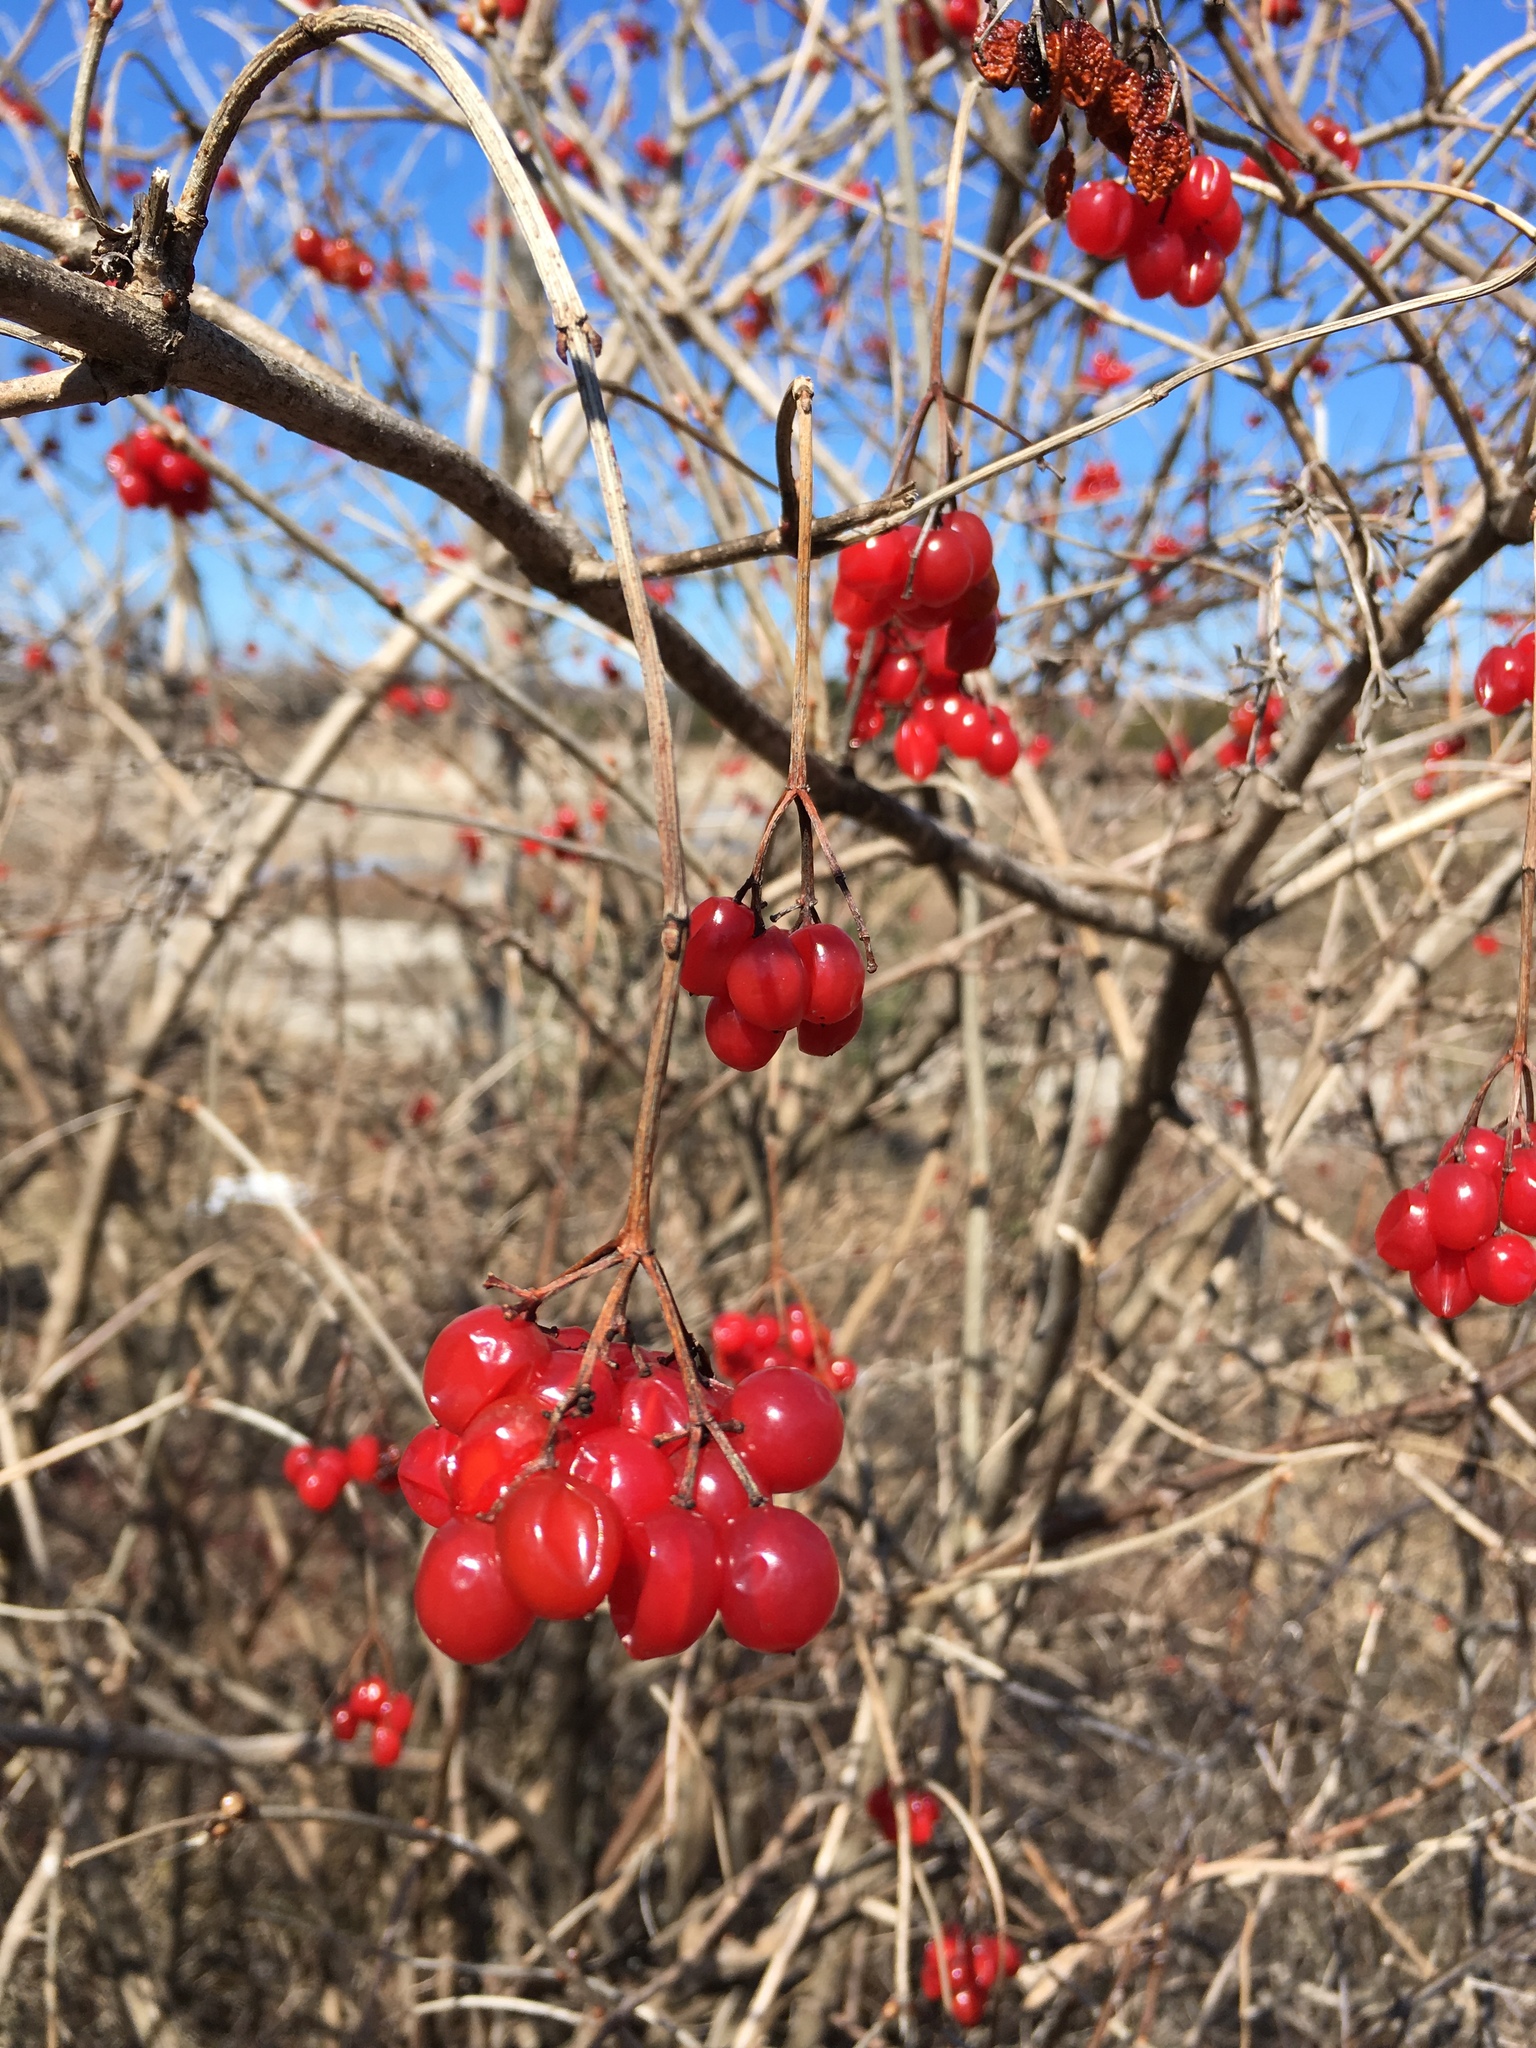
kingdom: Plantae
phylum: Tracheophyta
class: Magnoliopsida
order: Dipsacales
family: Viburnaceae
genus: Viburnum
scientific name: Viburnum opulus
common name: Guelder-rose
